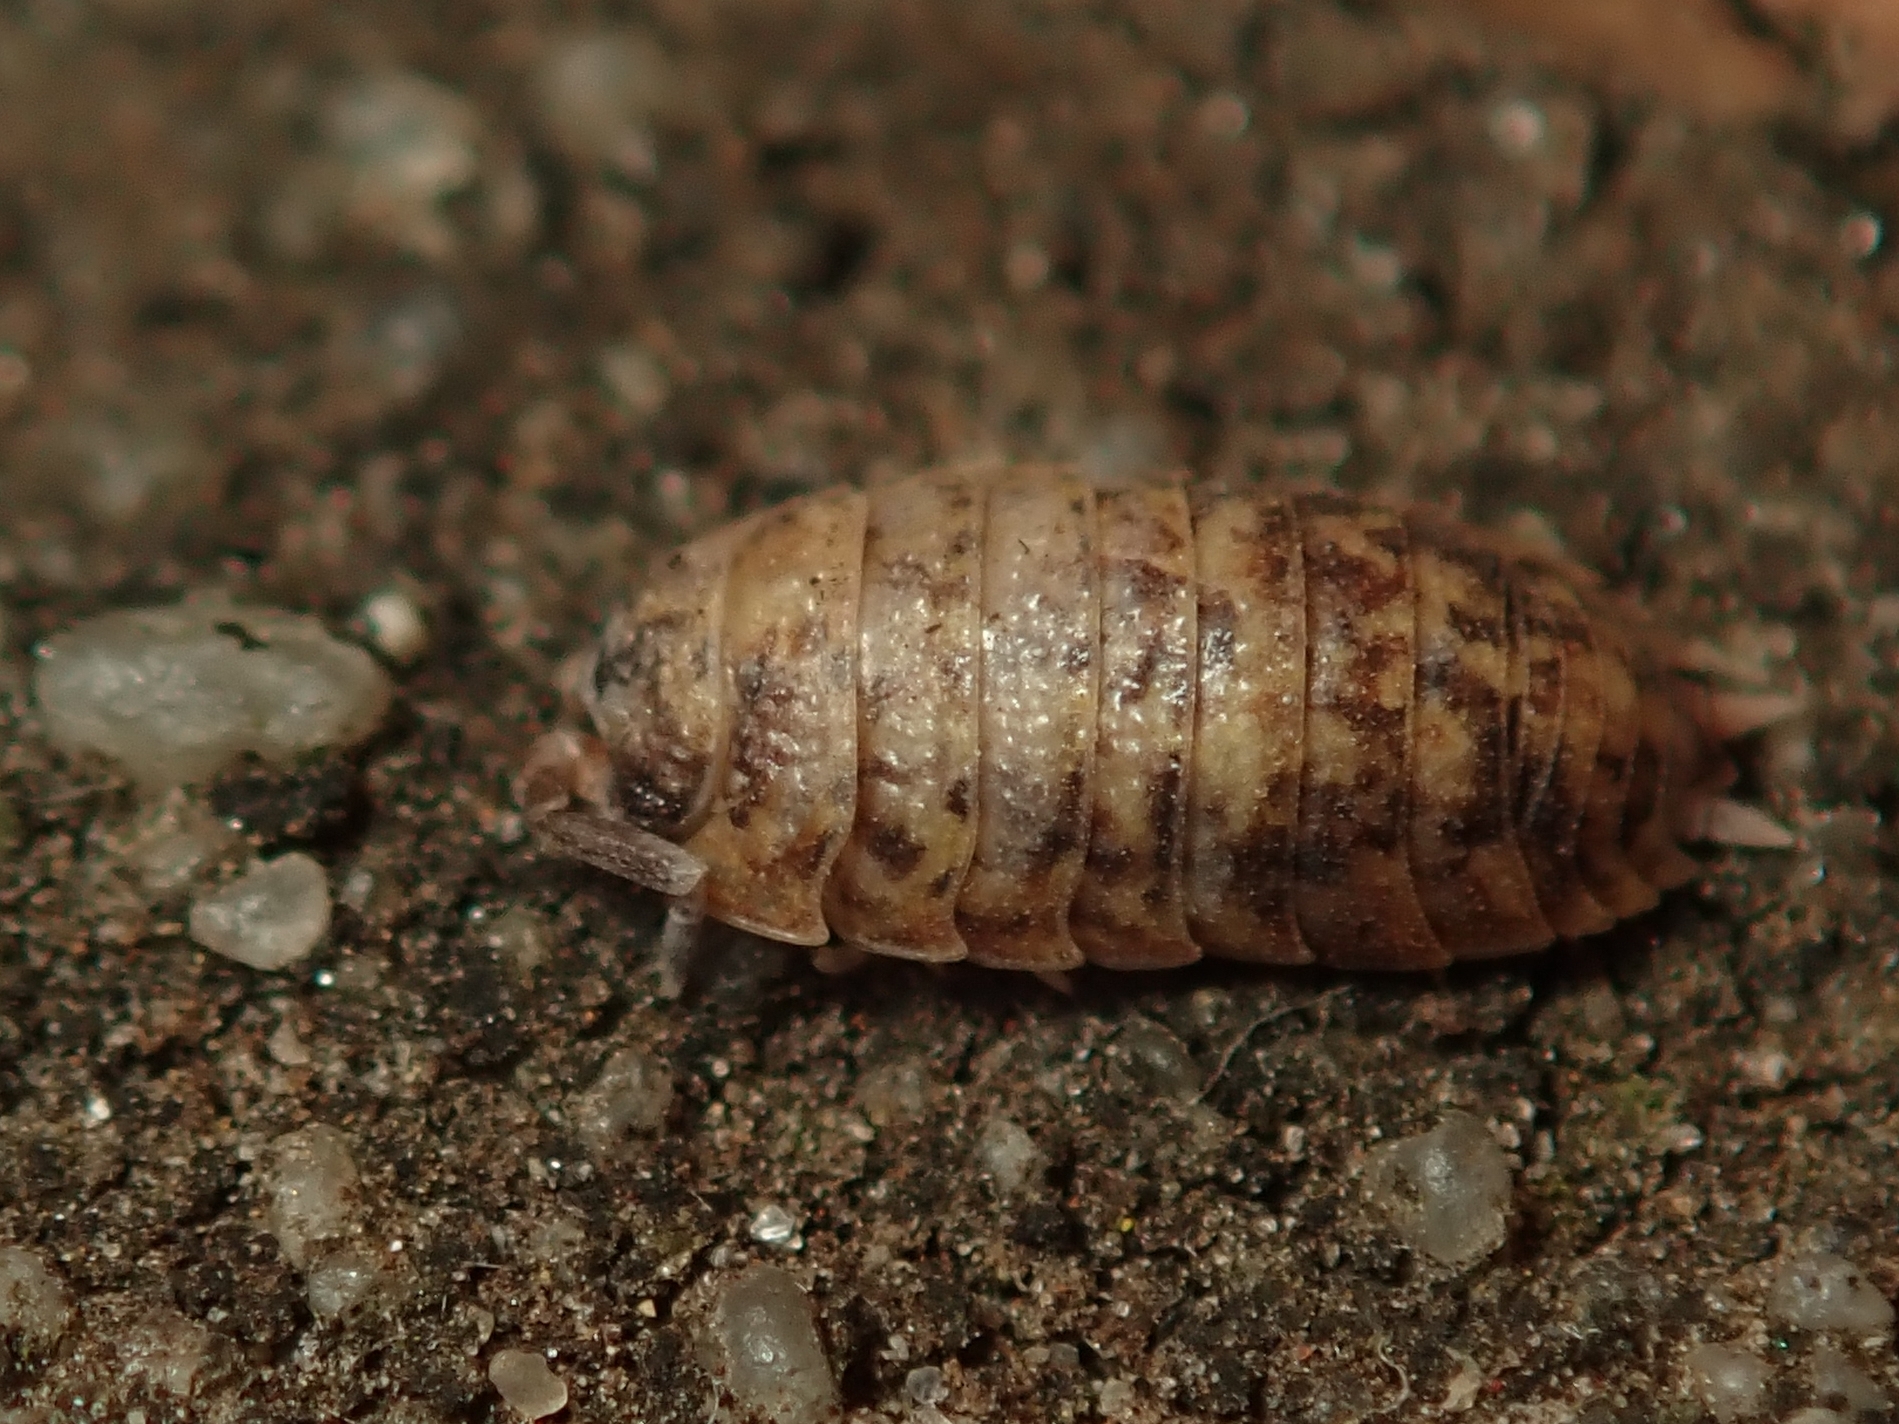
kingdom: Animalia
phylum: Arthropoda
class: Malacostraca
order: Isopoda
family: Porcellionidae
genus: Porcellio
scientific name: Porcellio scaber
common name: Common rough woodlouse
